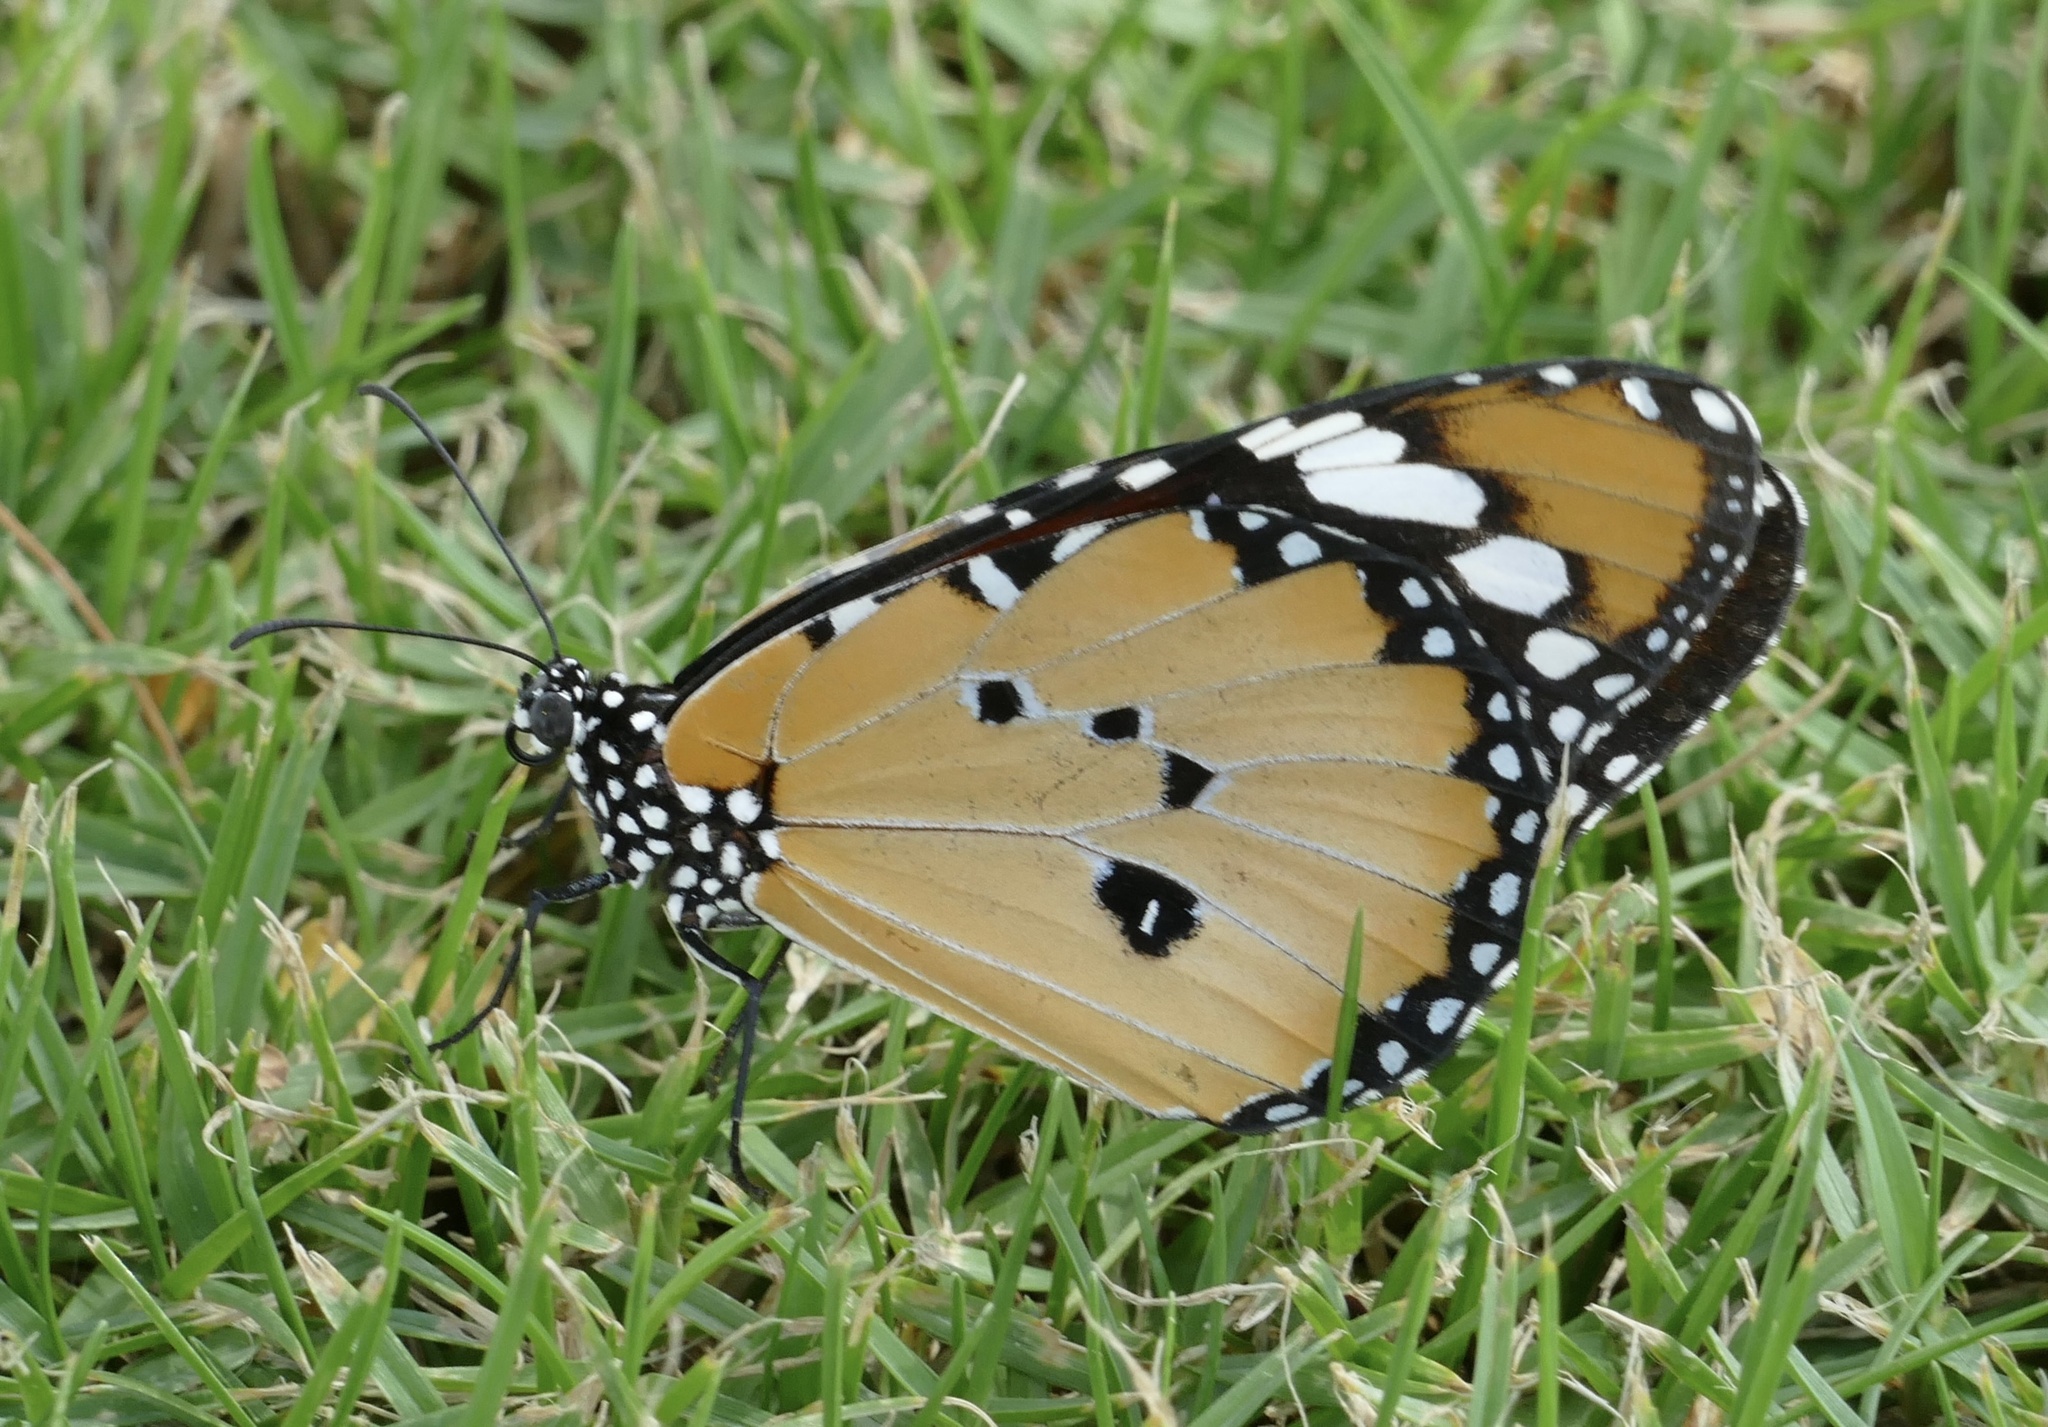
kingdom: Animalia
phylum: Arthropoda
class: Insecta
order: Lepidoptera
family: Nymphalidae
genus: Danaus
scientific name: Danaus chrysippus
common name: Plain tiger
